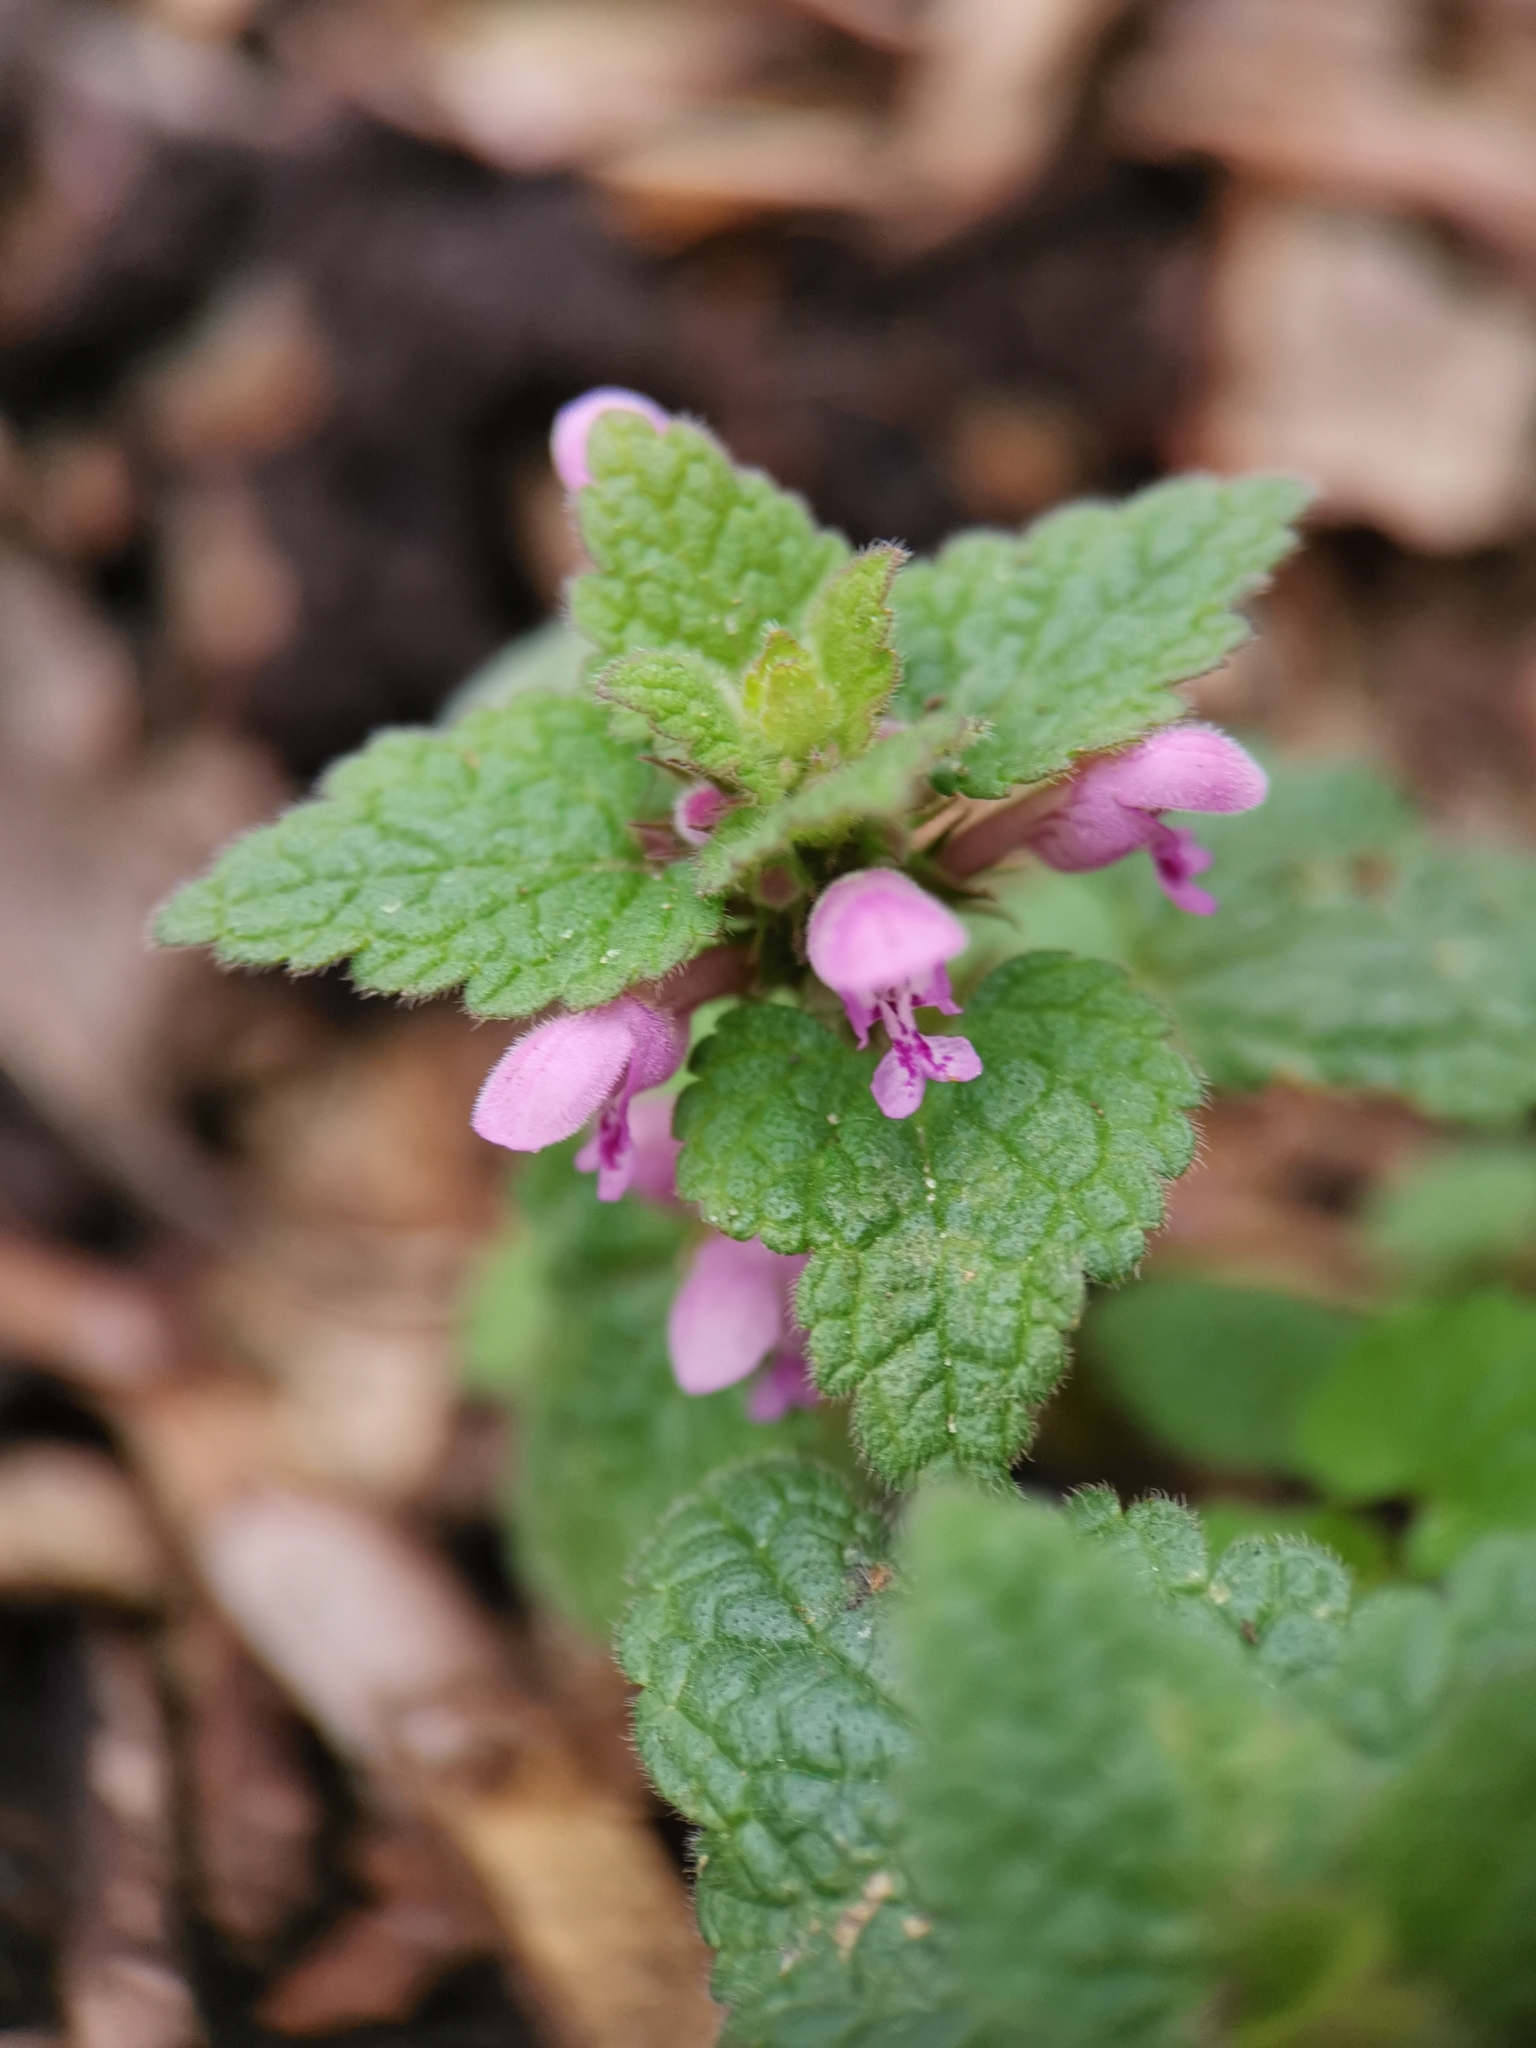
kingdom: Plantae
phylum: Tracheophyta
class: Magnoliopsida
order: Lamiales
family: Lamiaceae
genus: Lamium
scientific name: Lamium purpureum
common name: Red dead-nettle
